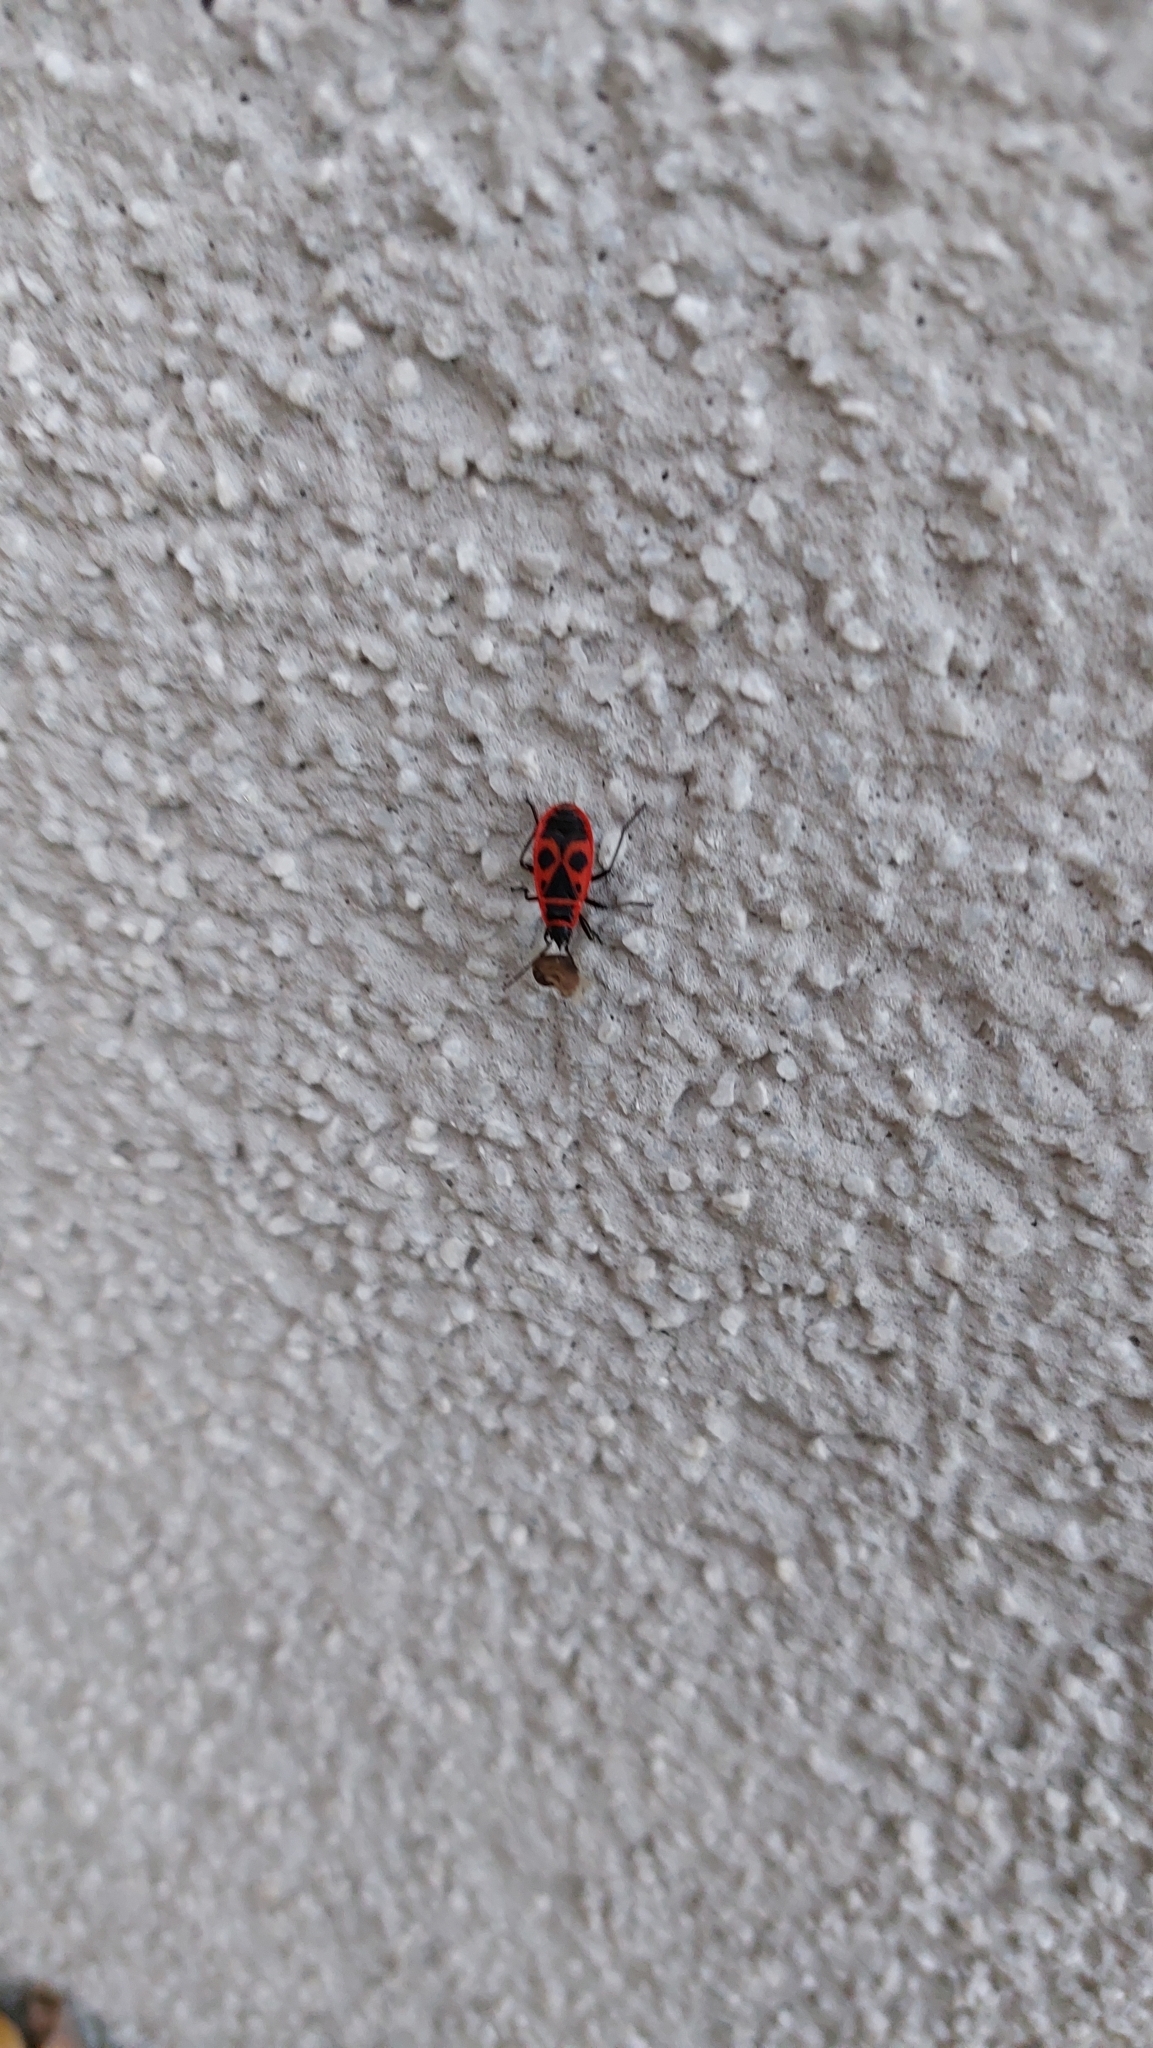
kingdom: Animalia
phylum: Arthropoda
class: Insecta
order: Hemiptera
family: Pyrrhocoridae
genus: Pyrrhocoris
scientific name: Pyrrhocoris apterus
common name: Firebug
